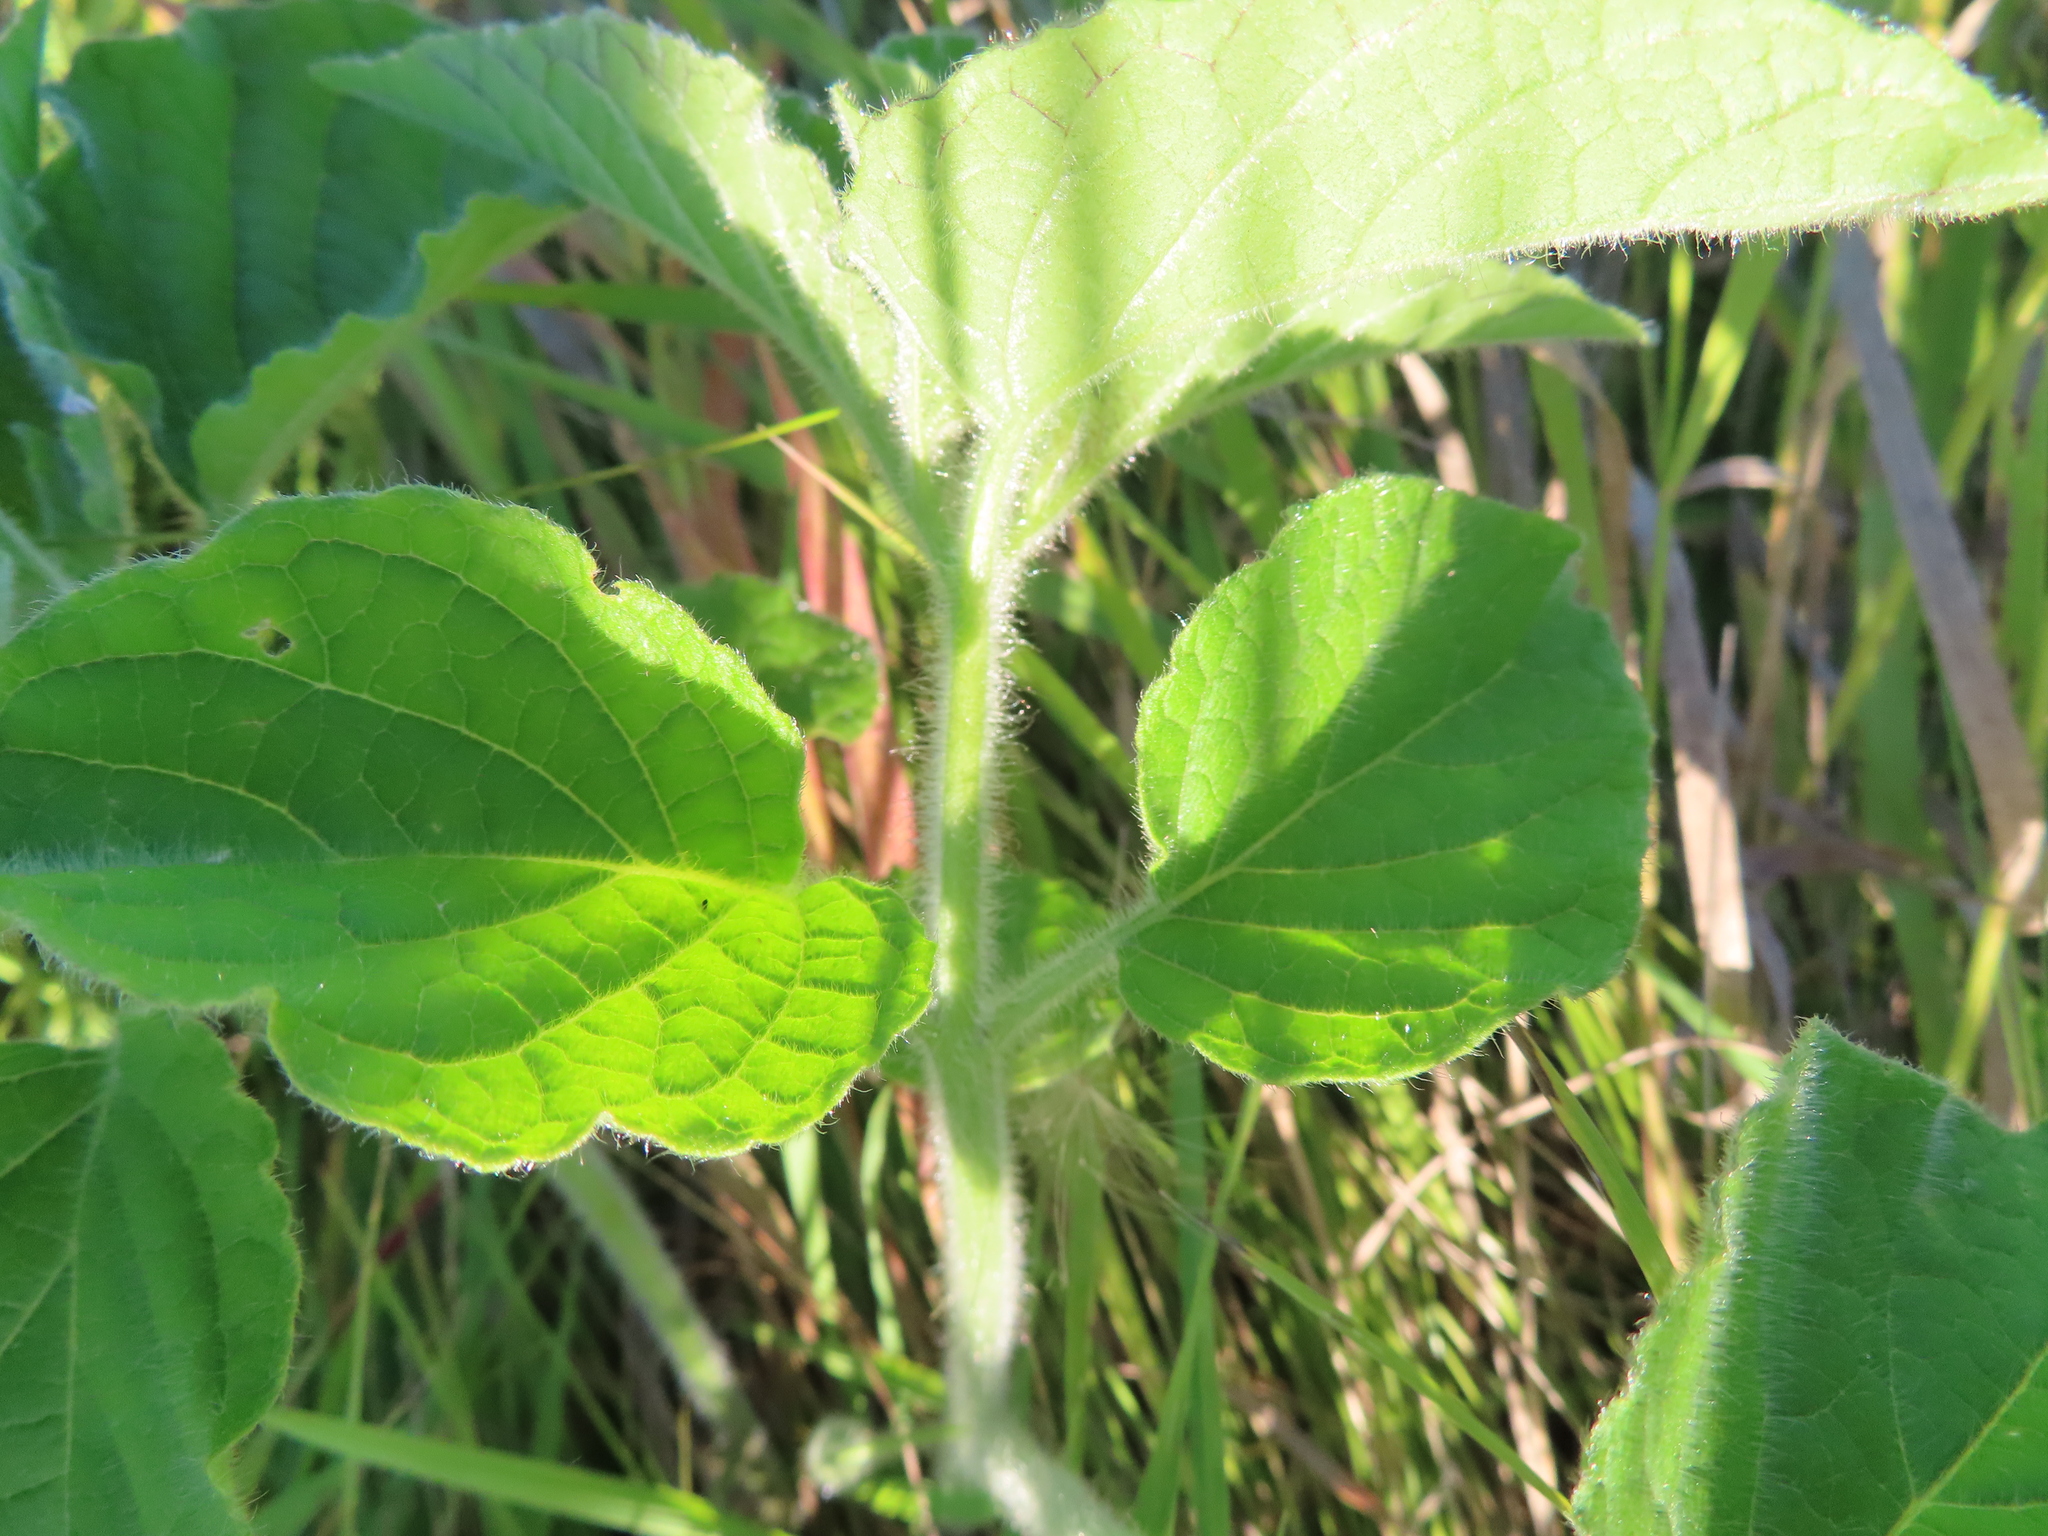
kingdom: Plantae
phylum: Tracheophyta
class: Magnoliopsida
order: Solanales
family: Solanaceae
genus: Physalis
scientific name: Physalis heterophylla
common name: Clammy ground-cherry
